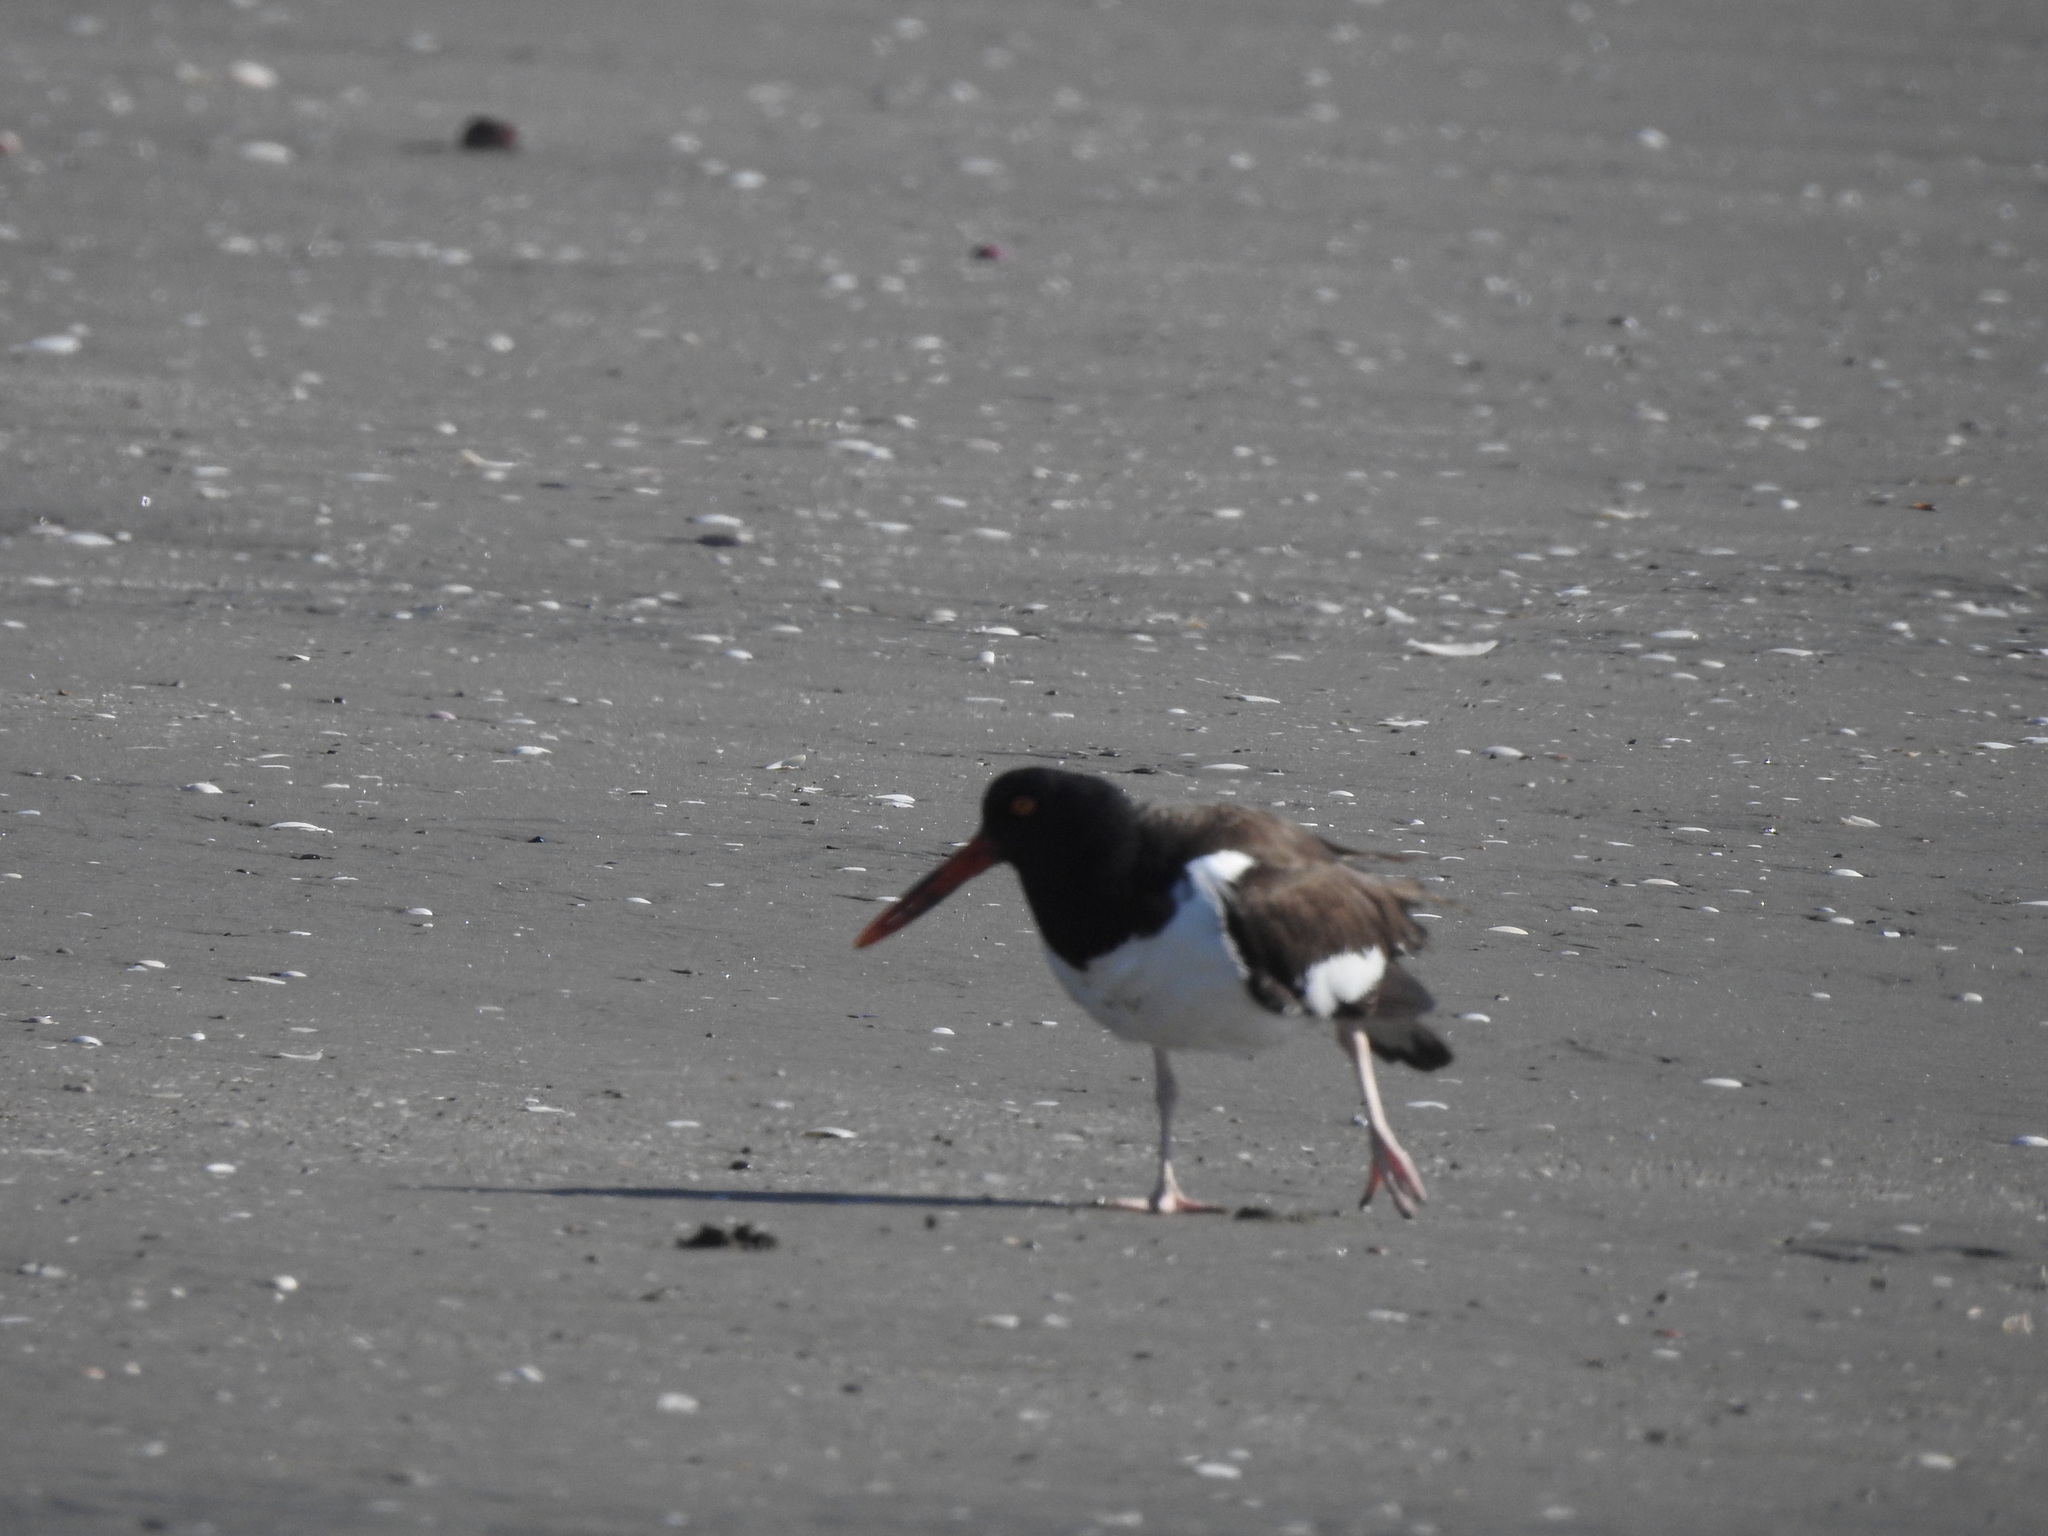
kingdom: Animalia
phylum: Chordata
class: Aves
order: Charadriiformes
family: Haematopodidae
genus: Haematopus
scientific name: Haematopus palliatus
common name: American oystercatcher
